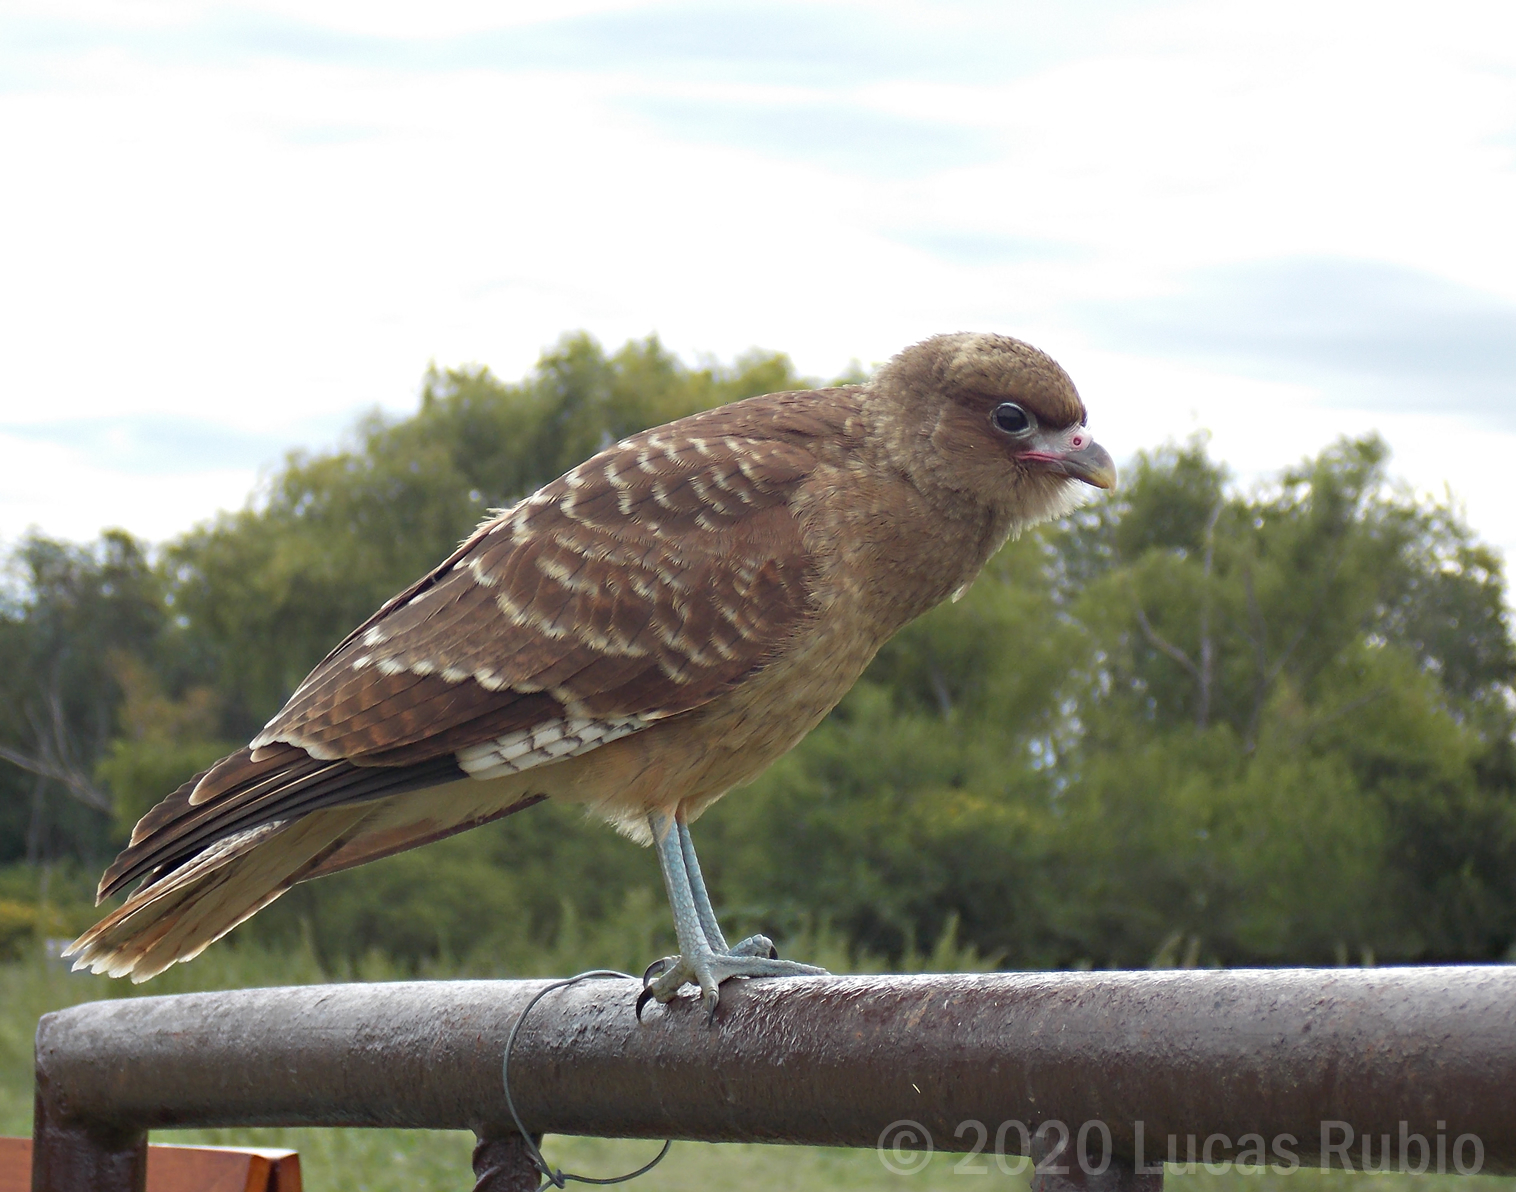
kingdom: Animalia
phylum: Chordata
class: Aves
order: Falconiformes
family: Falconidae
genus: Daptrius
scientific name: Daptrius
